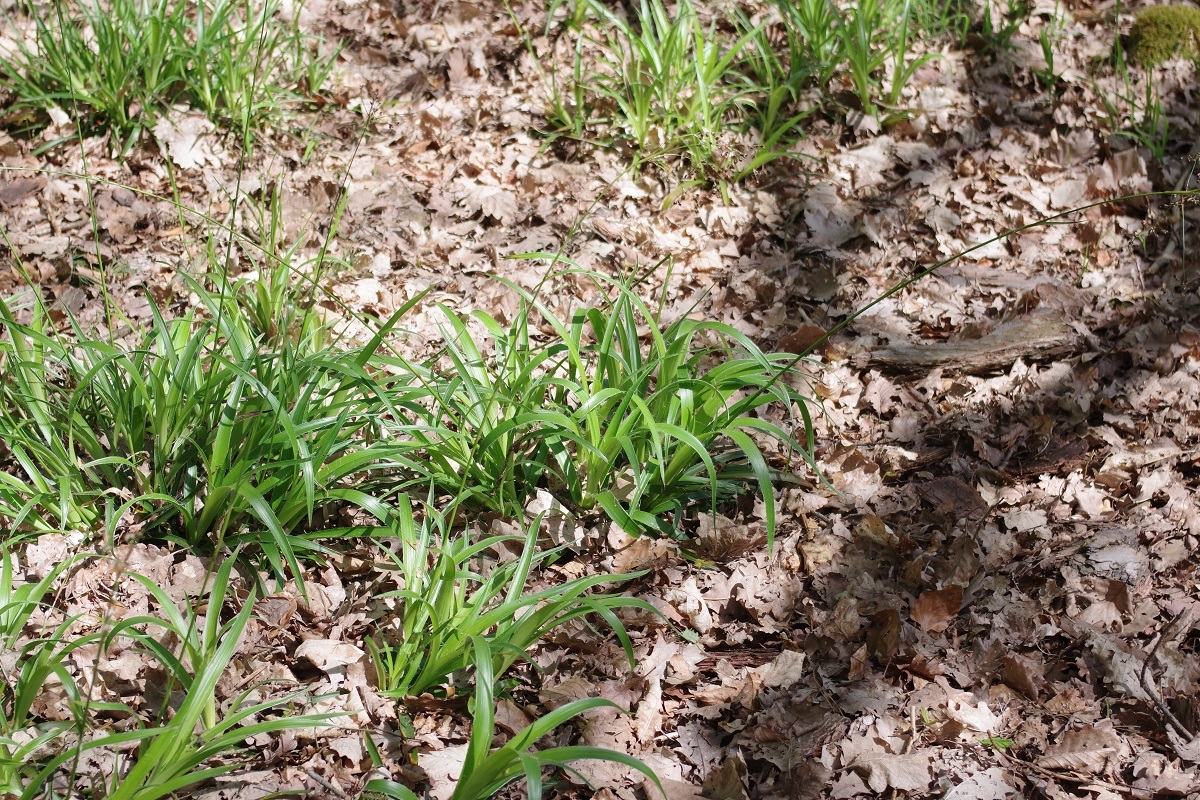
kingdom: Plantae
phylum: Tracheophyta
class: Liliopsida
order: Poales
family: Juncaceae
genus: Luzula
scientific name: Luzula sylvatica
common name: Great wood-rush
